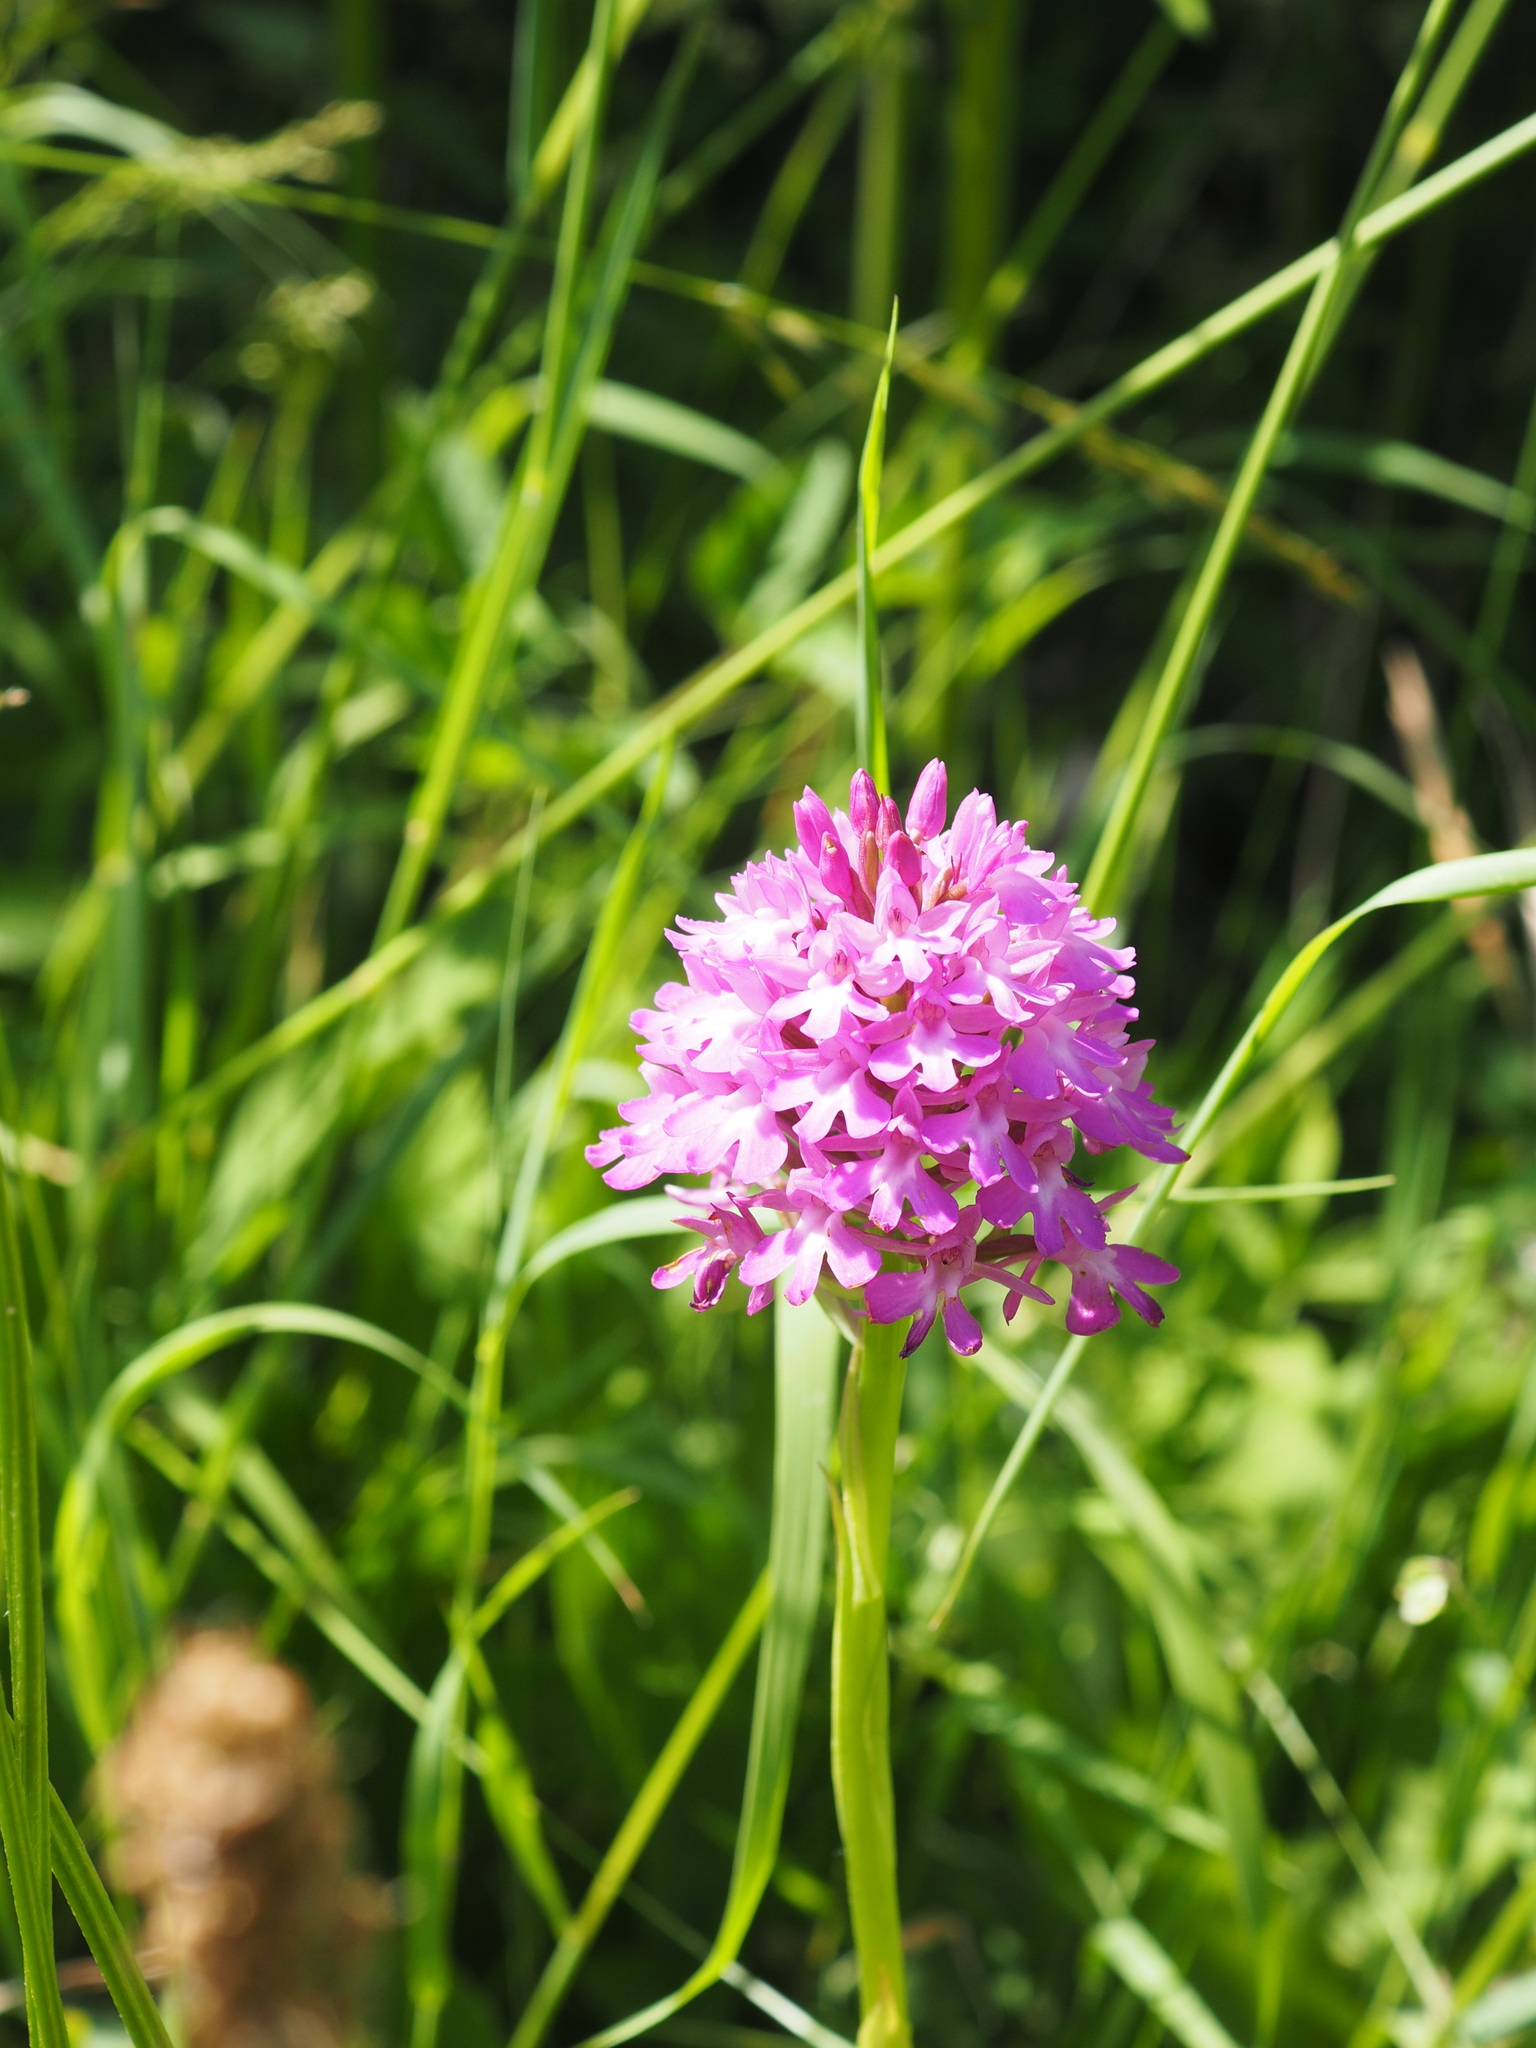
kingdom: Plantae
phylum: Tracheophyta
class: Liliopsida
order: Asparagales
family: Orchidaceae
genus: Anacamptis
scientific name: Anacamptis pyramidalis
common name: Pyramidal orchid
